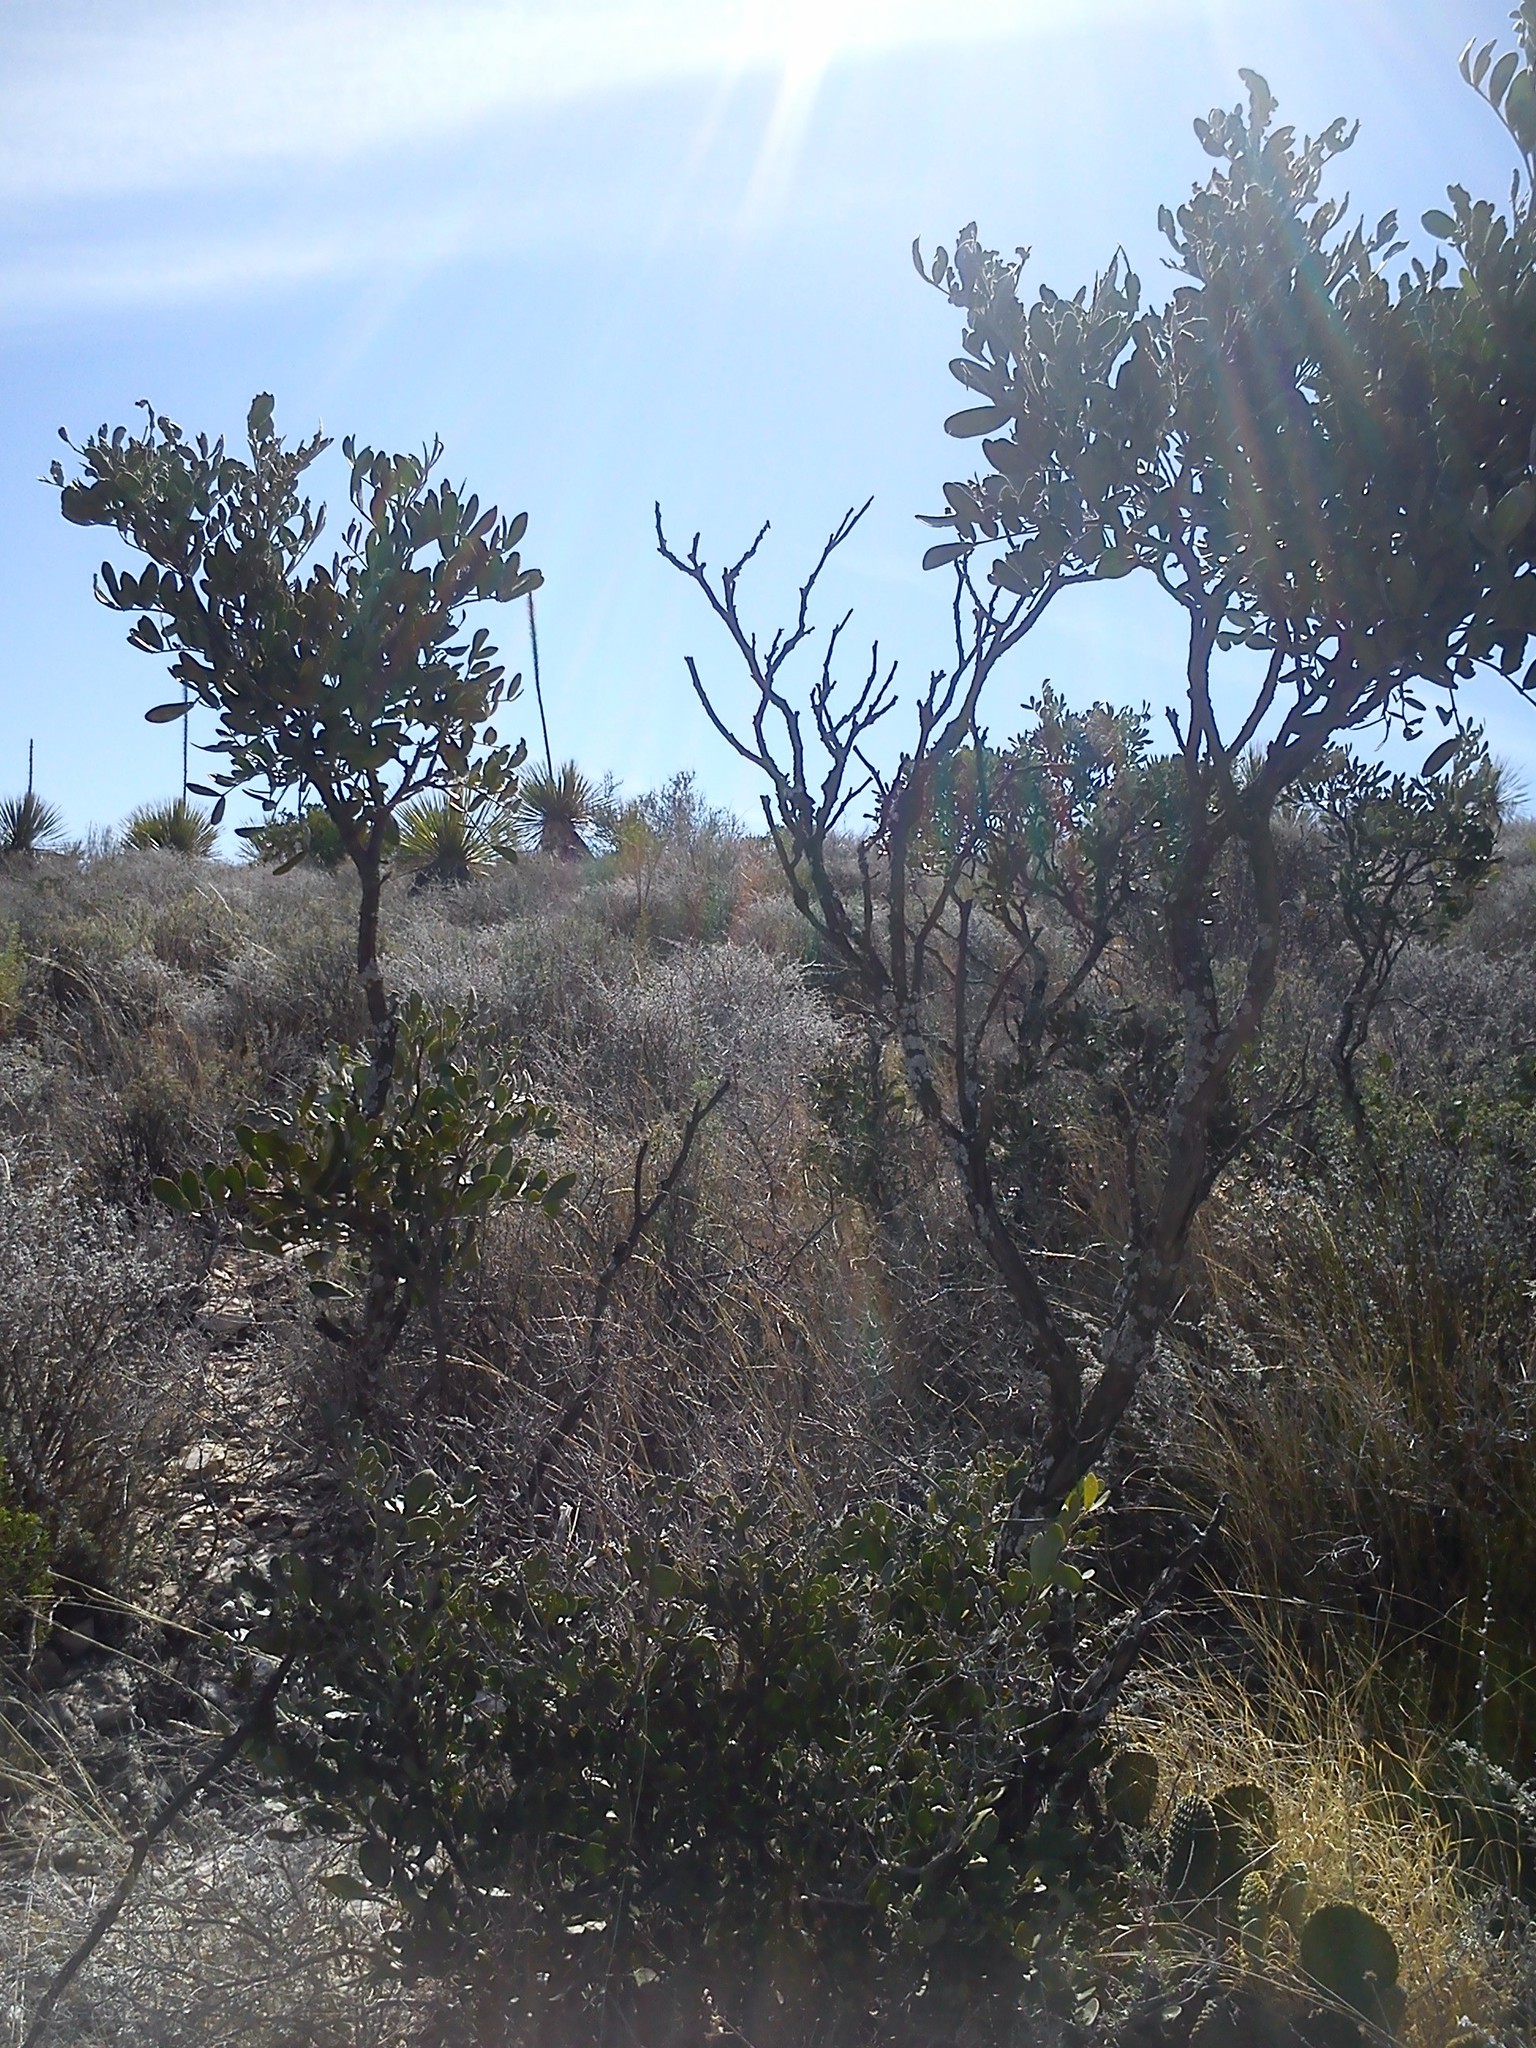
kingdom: Plantae
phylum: Tracheophyta
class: Magnoliopsida
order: Fabales
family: Fabaceae
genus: Dermatophyllum
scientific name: Dermatophyllum secundiflorum
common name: Texas-mountain-laurel
